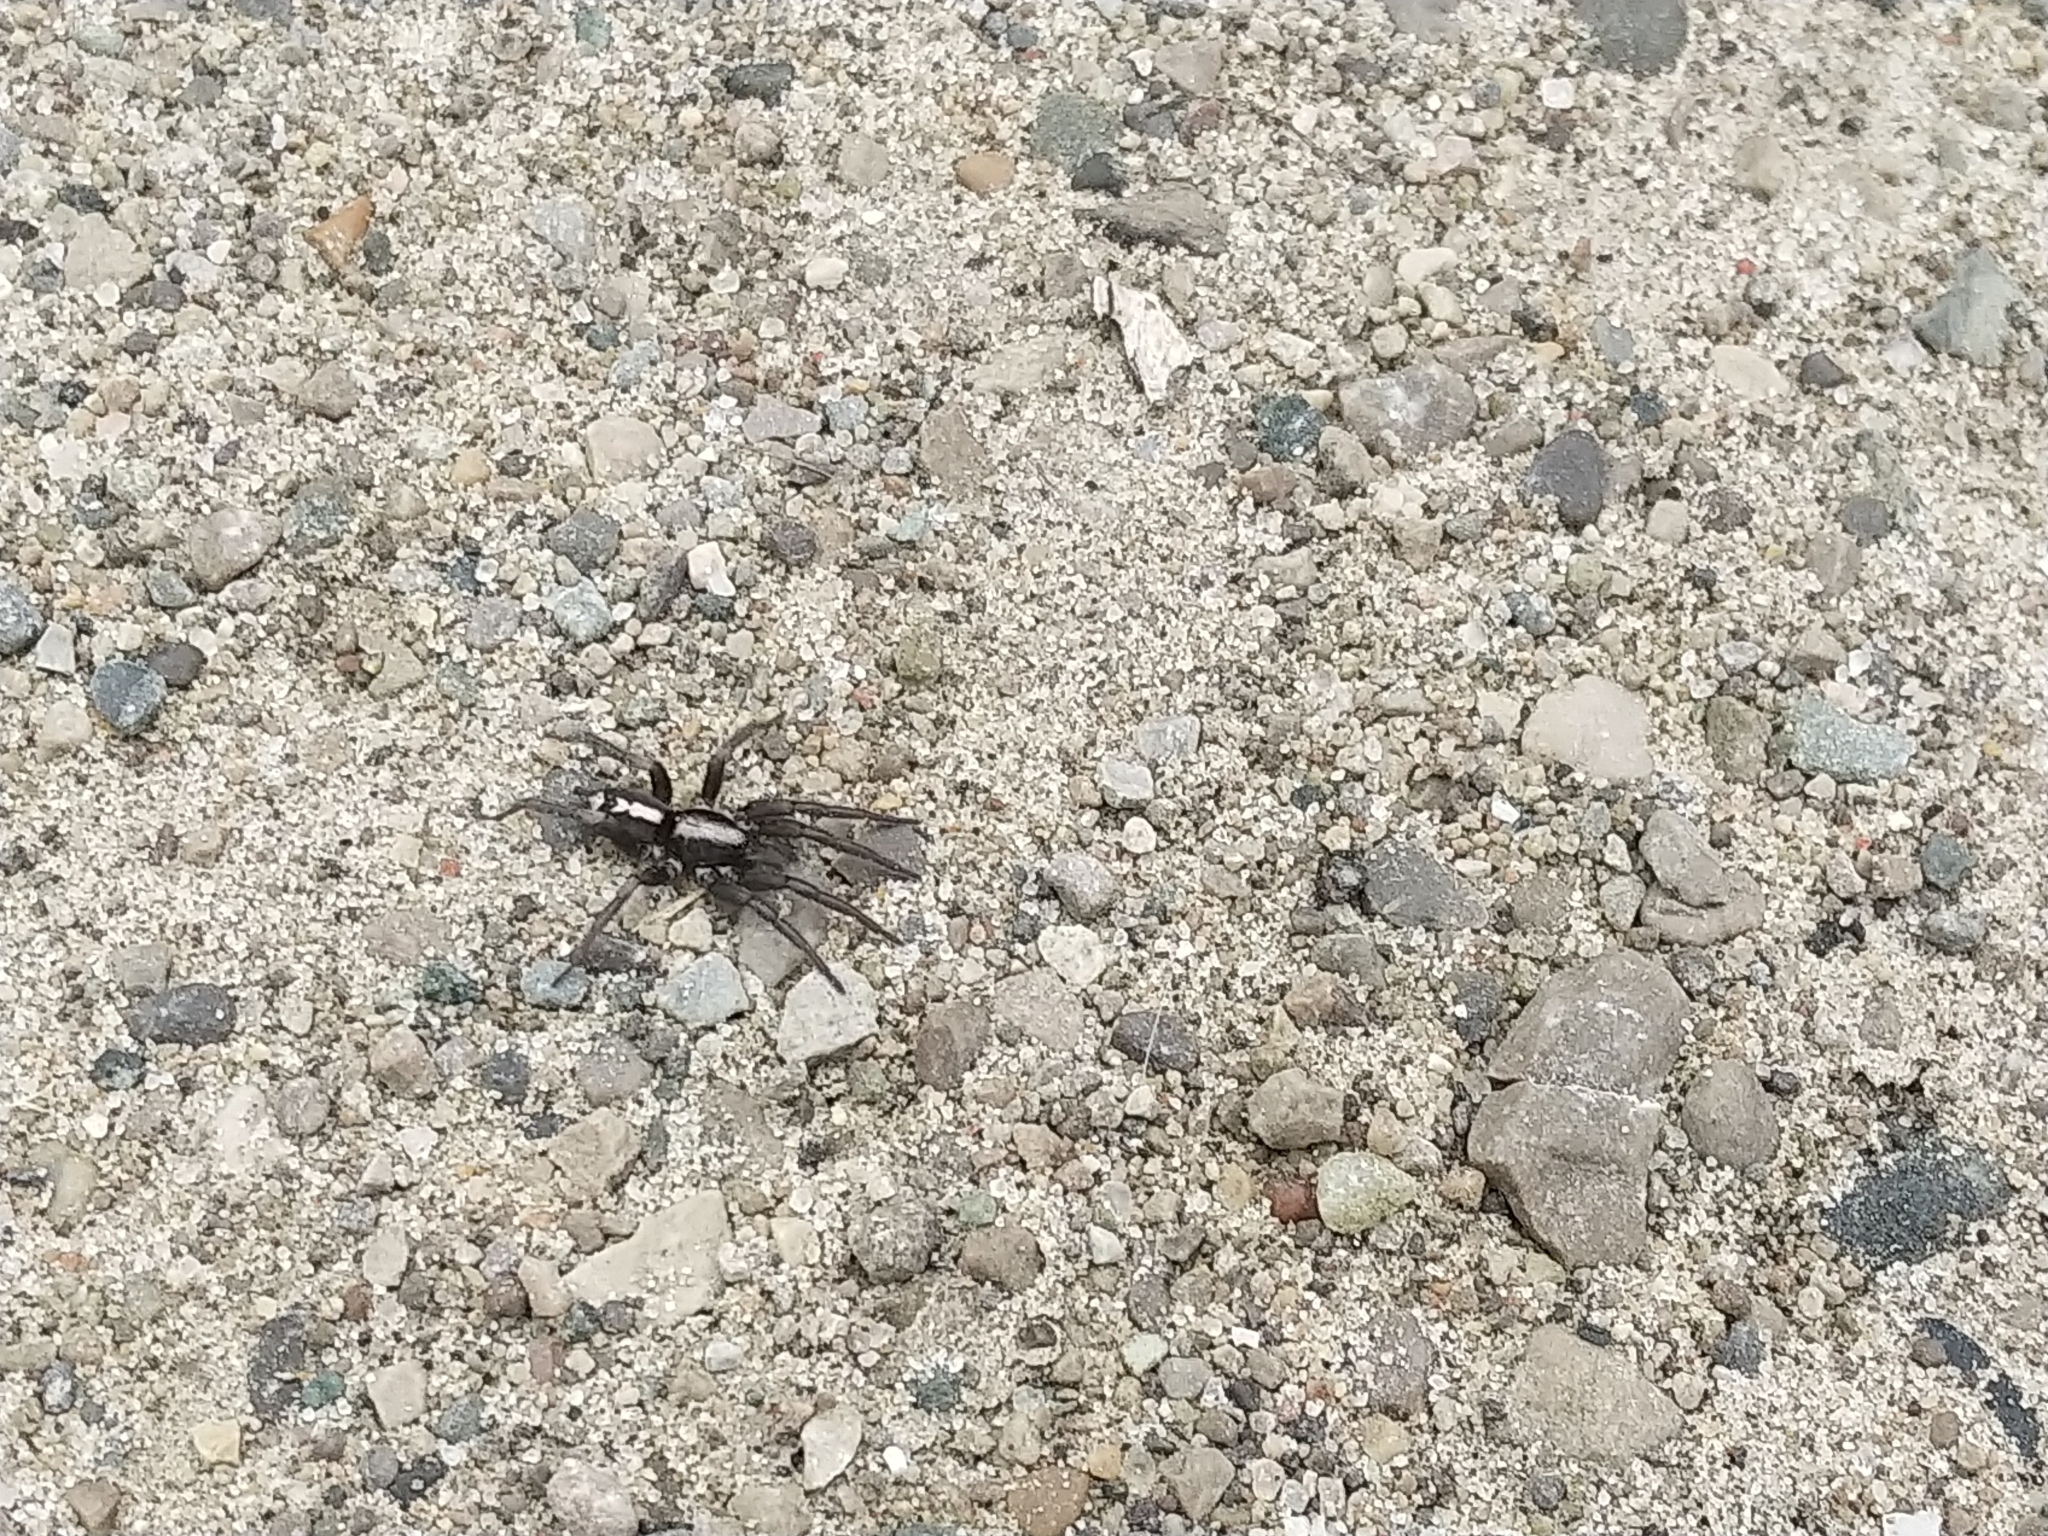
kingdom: Animalia
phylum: Arthropoda
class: Arachnida
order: Araneae
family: Gnaphosidae
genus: Herpyllus
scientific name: Herpyllus ecclesiasticus
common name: Eastern parson spider
